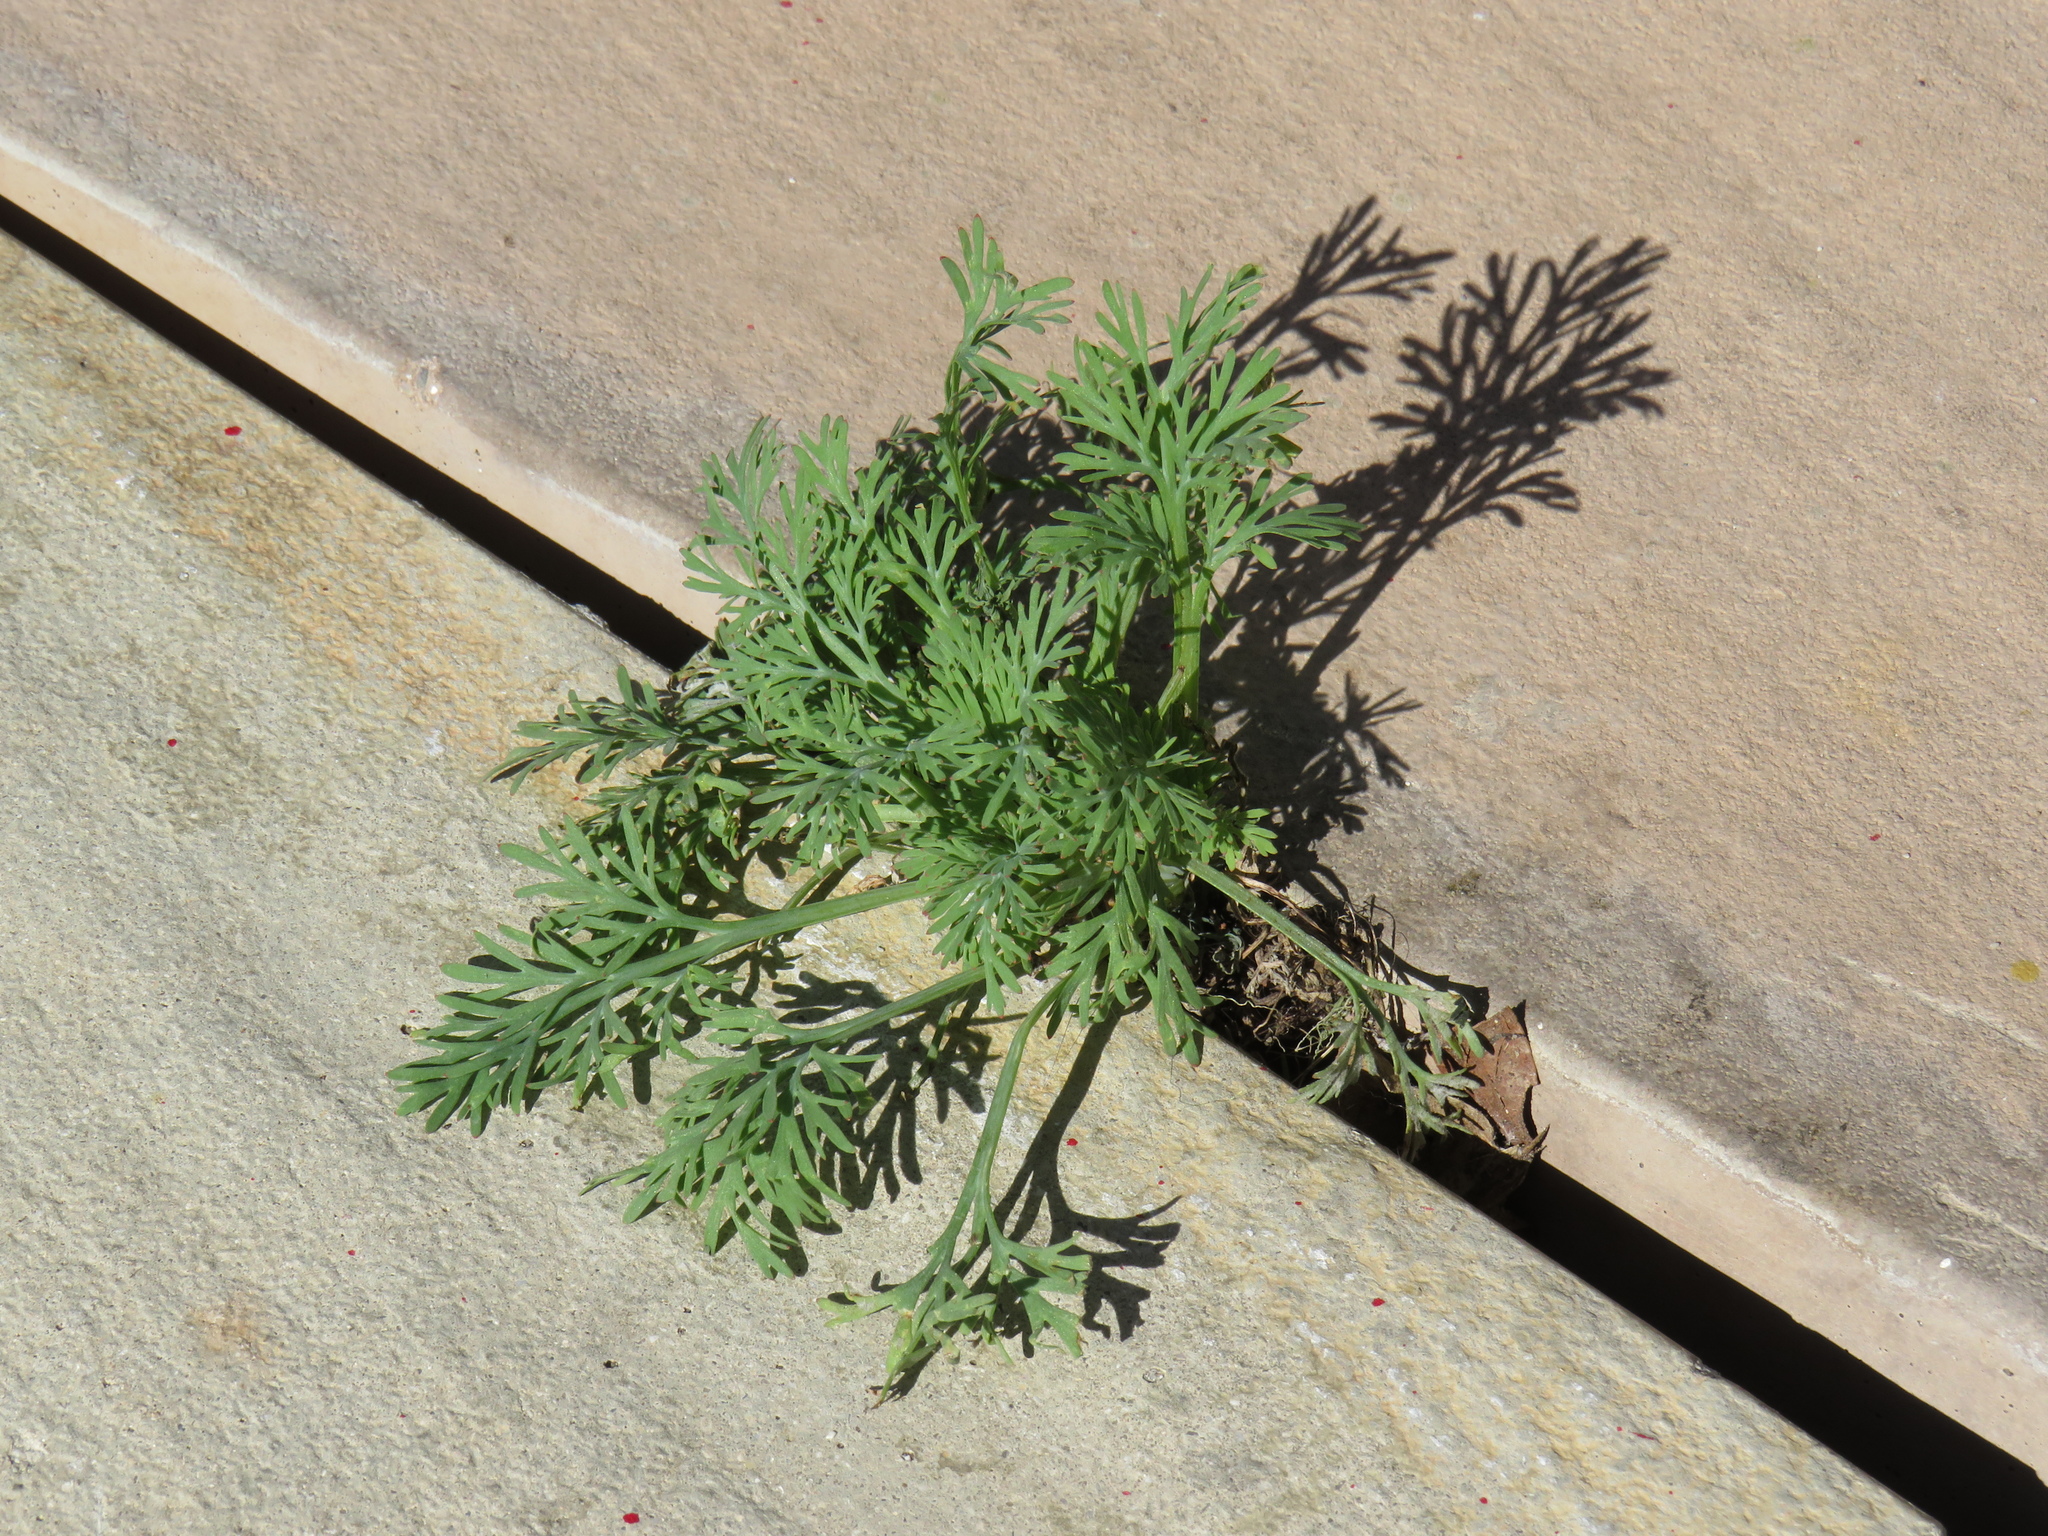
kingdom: Plantae
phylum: Tracheophyta
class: Magnoliopsida
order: Ranunculales
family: Papaveraceae
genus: Eschscholzia
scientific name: Eschscholzia californica
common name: California poppy
